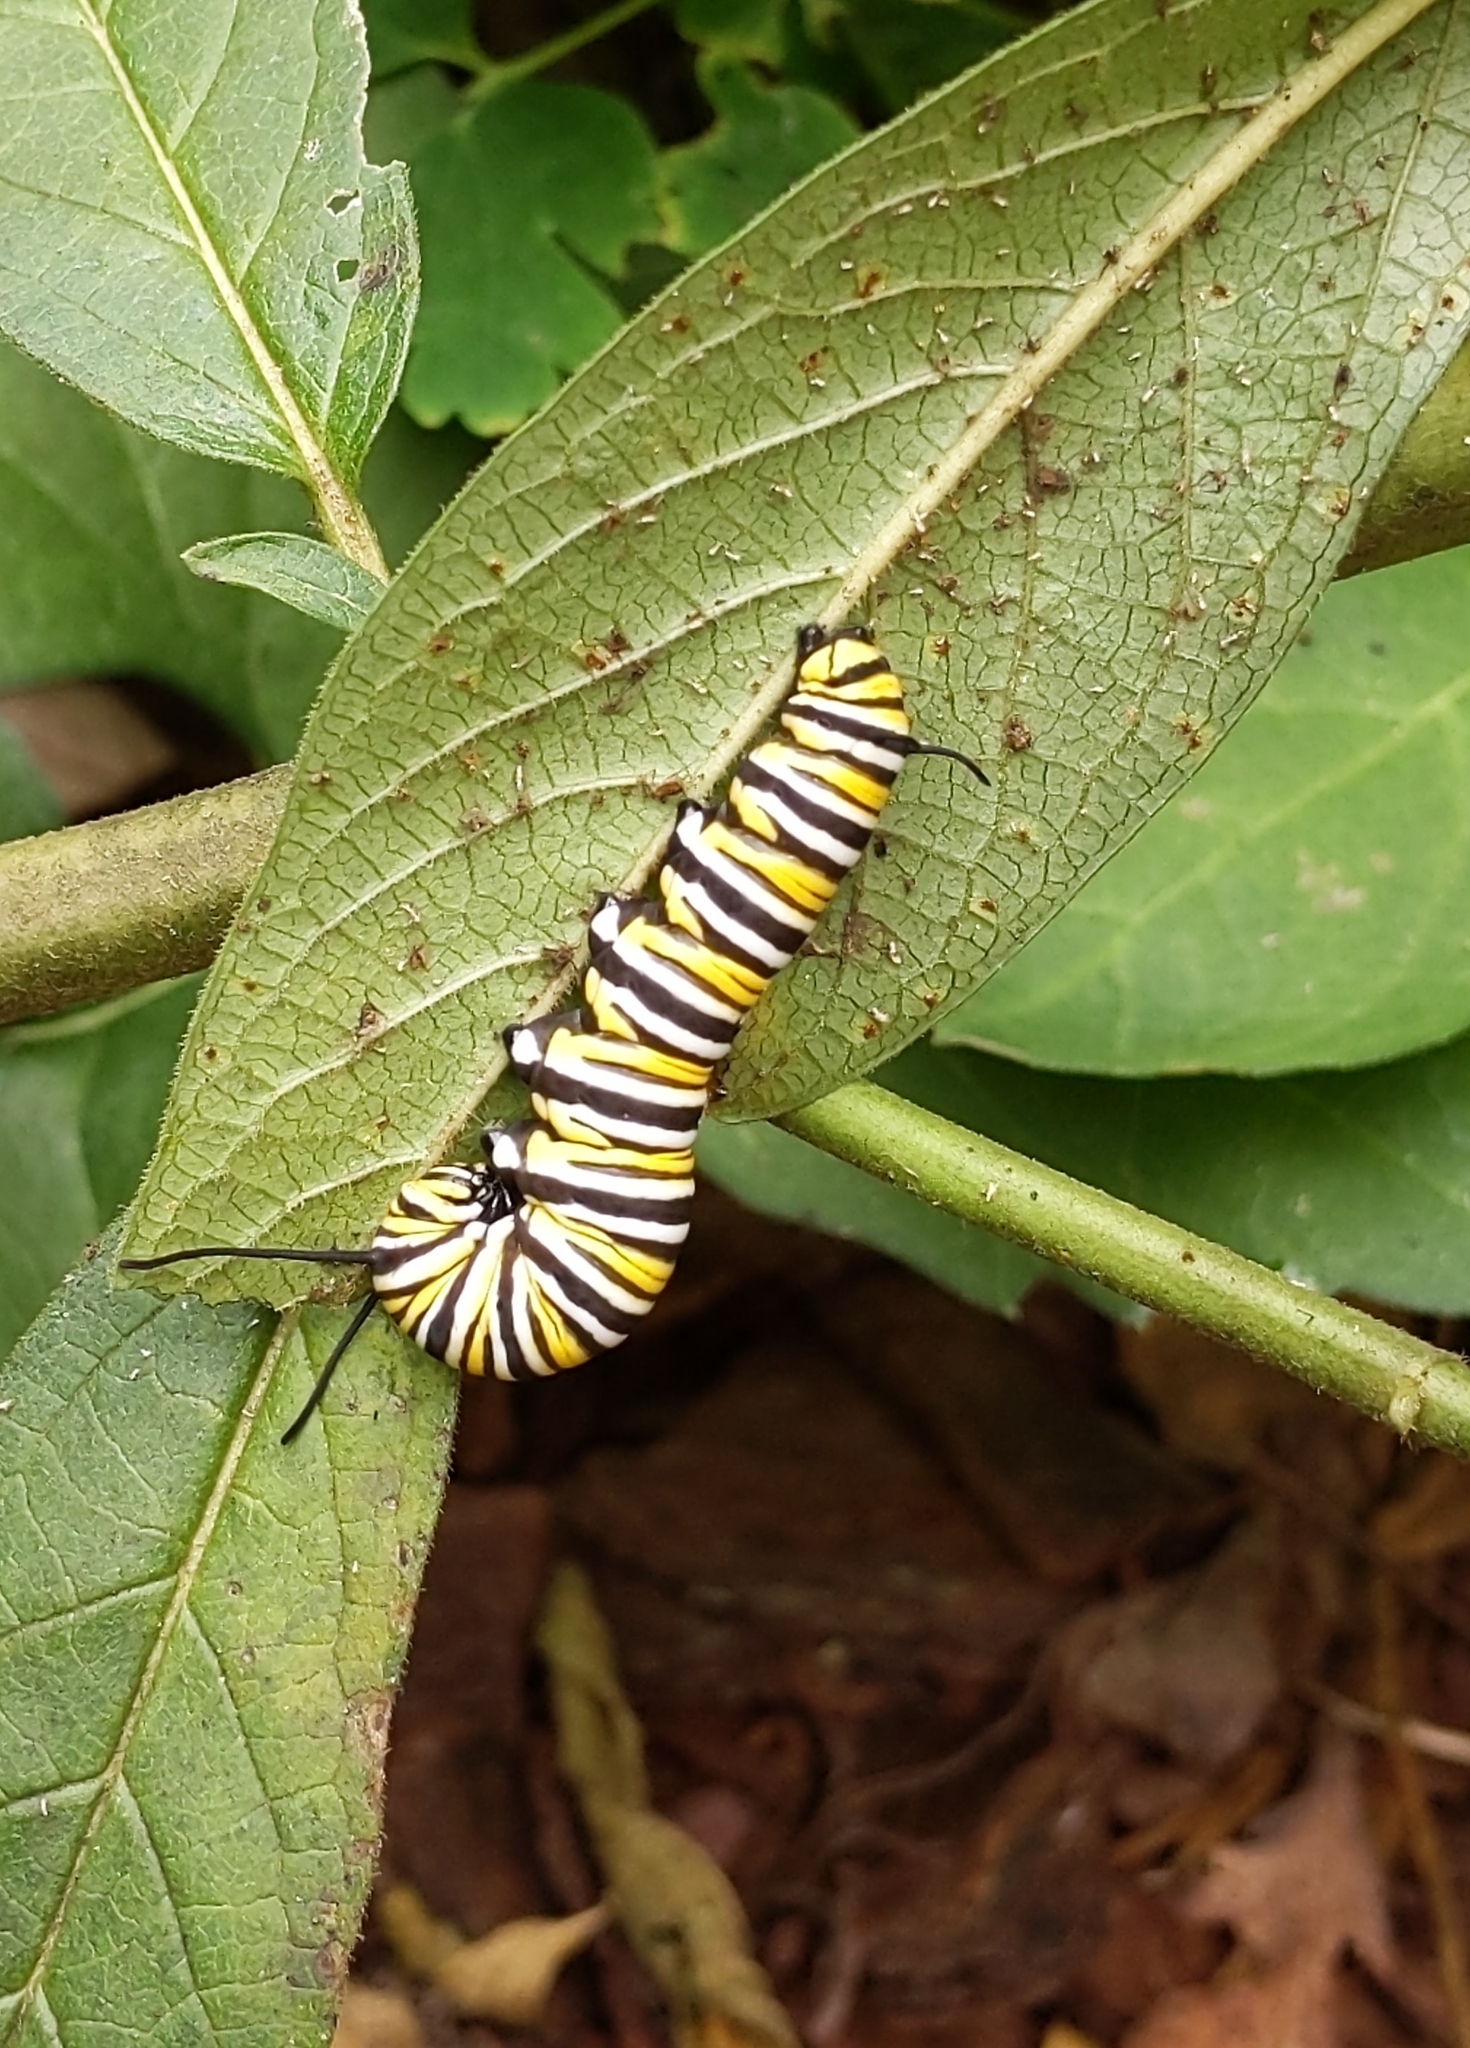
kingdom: Animalia
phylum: Arthropoda
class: Insecta
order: Lepidoptera
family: Nymphalidae
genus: Danaus
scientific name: Danaus plexippus
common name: Monarch
